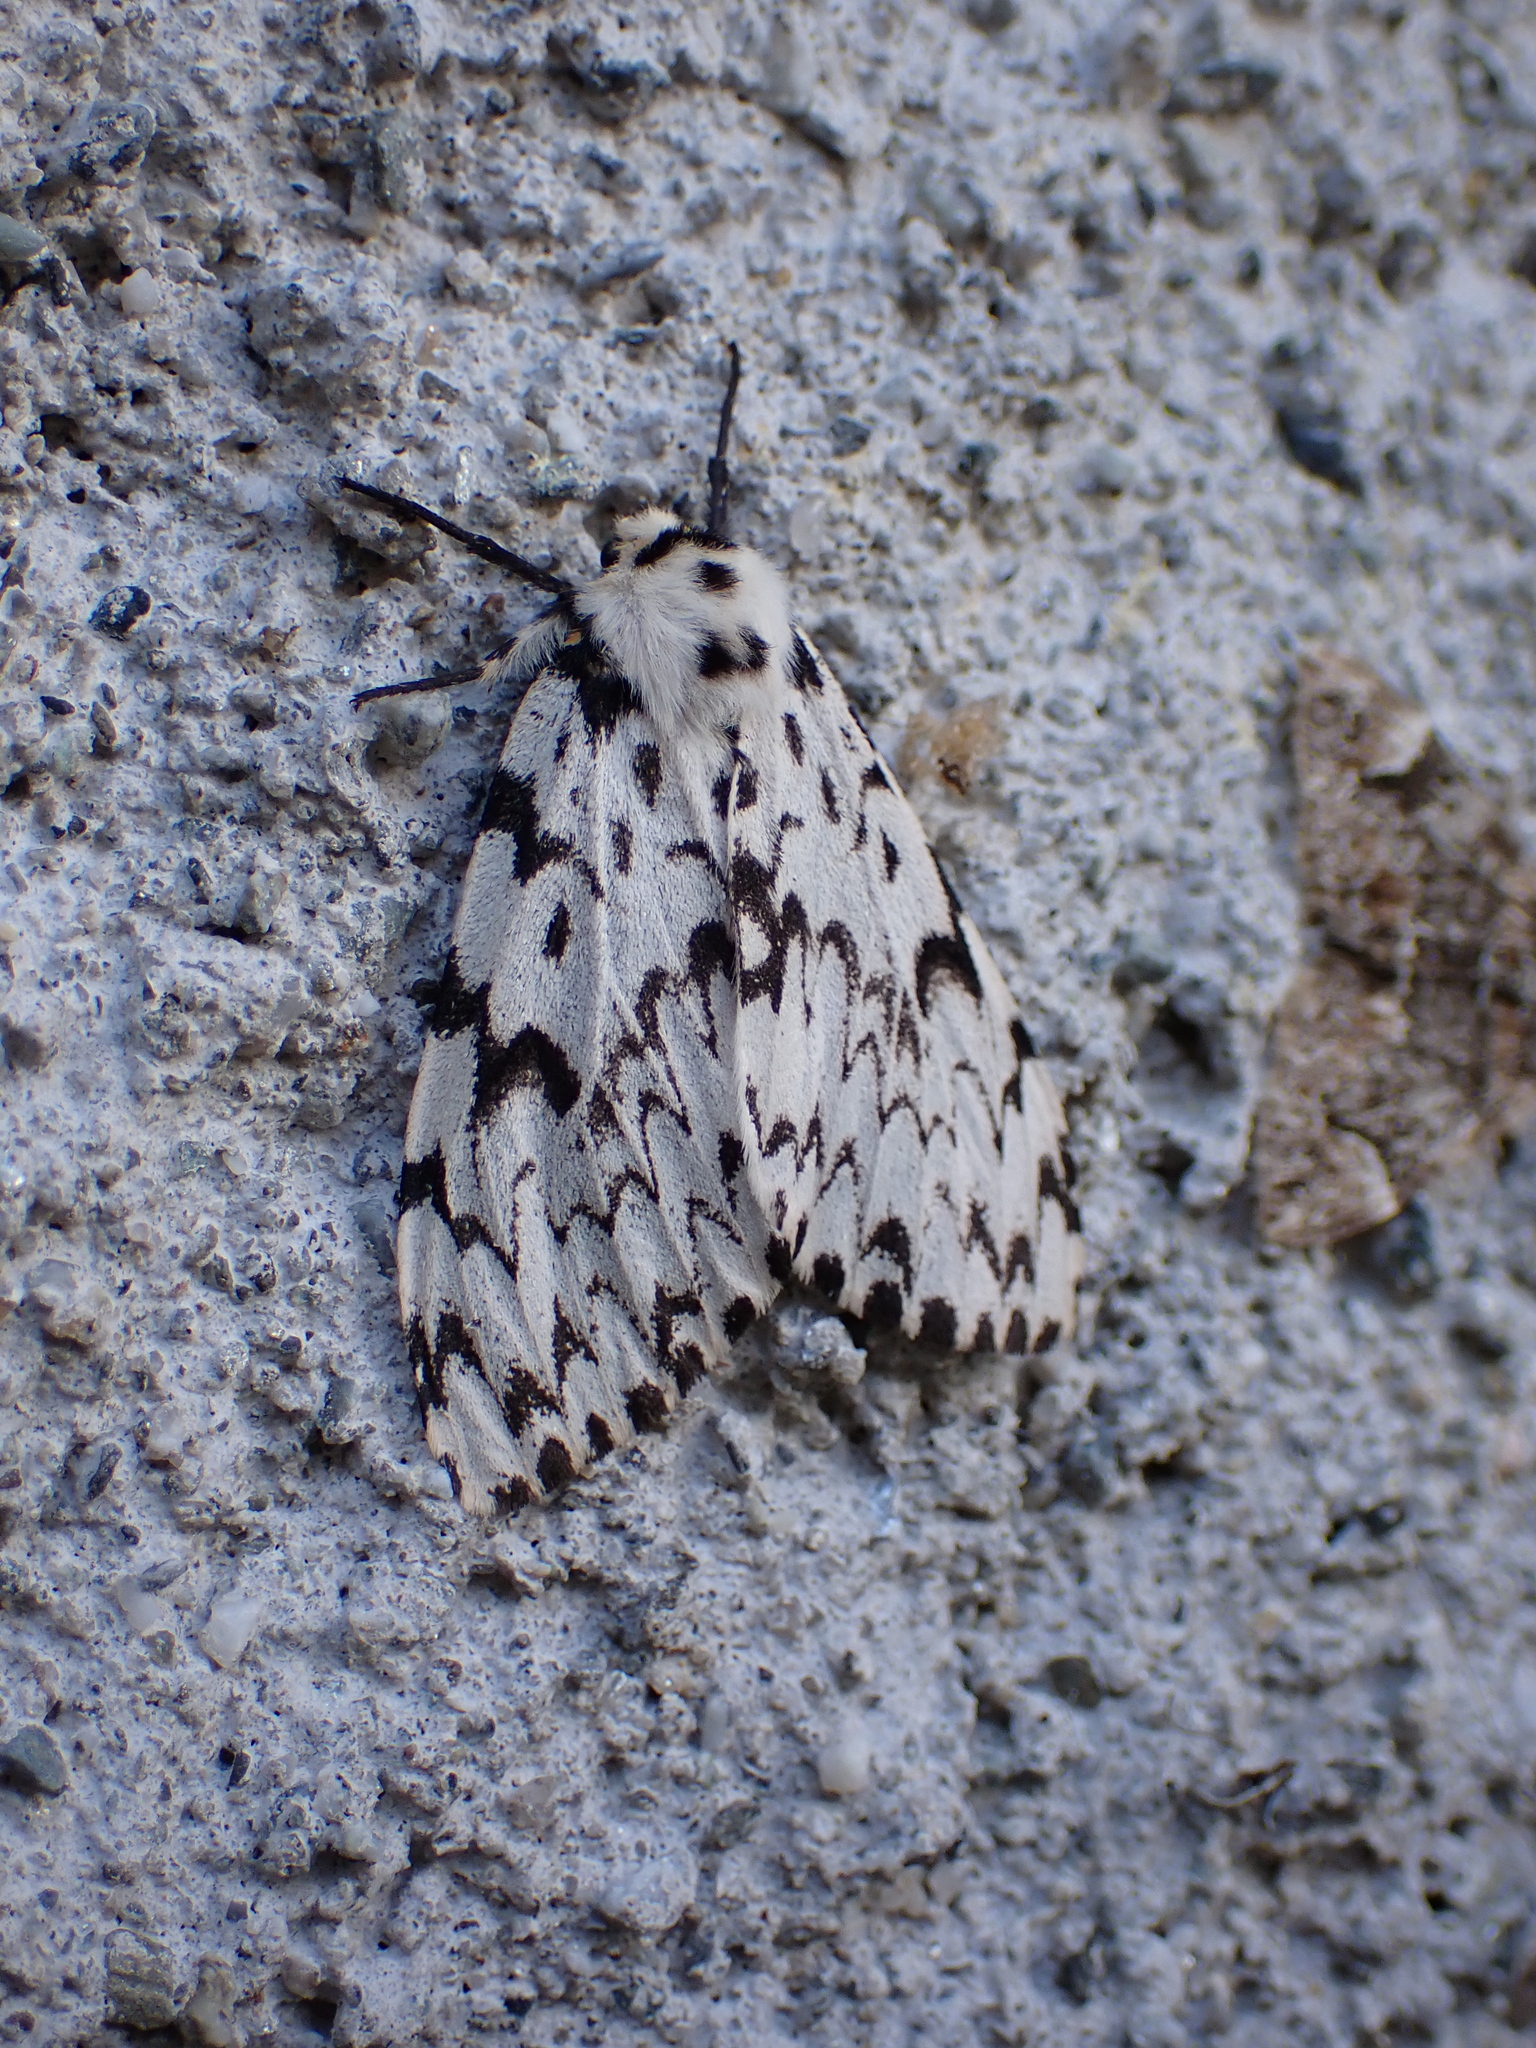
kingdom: Animalia
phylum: Arthropoda
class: Insecta
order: Lepidoptera
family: Erebidae
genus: Lymantria
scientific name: Lymantria monacha
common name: Black arches
